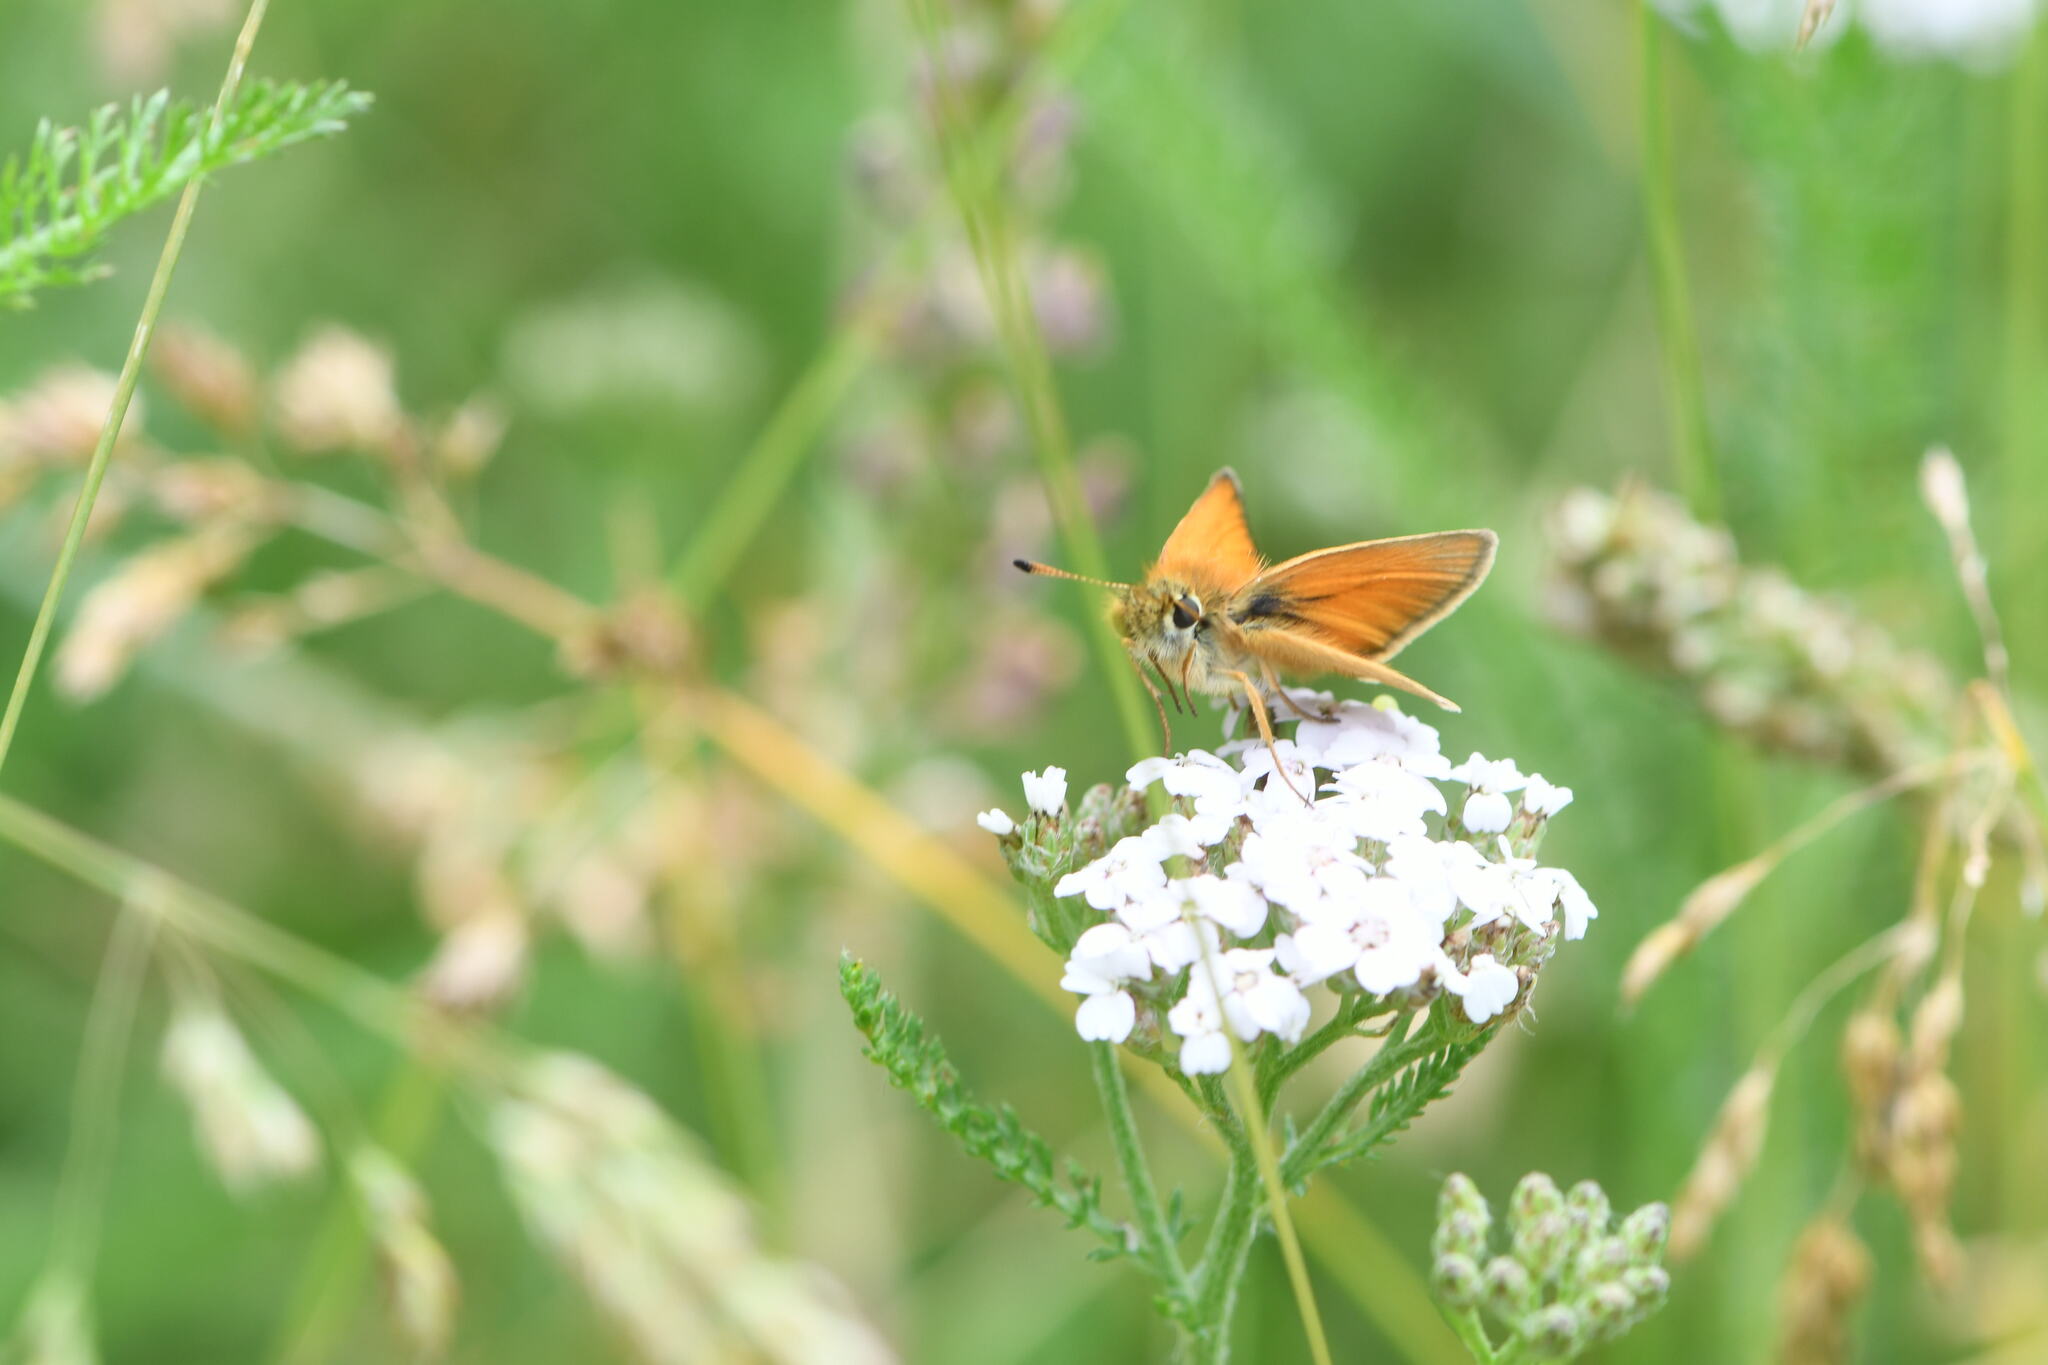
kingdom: Animalia
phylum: Arthropoda
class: Insecta
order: Lepidoptera
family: Hesperiidae
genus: Thymelicus
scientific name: Thymelicus lineola
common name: Essex skipper
